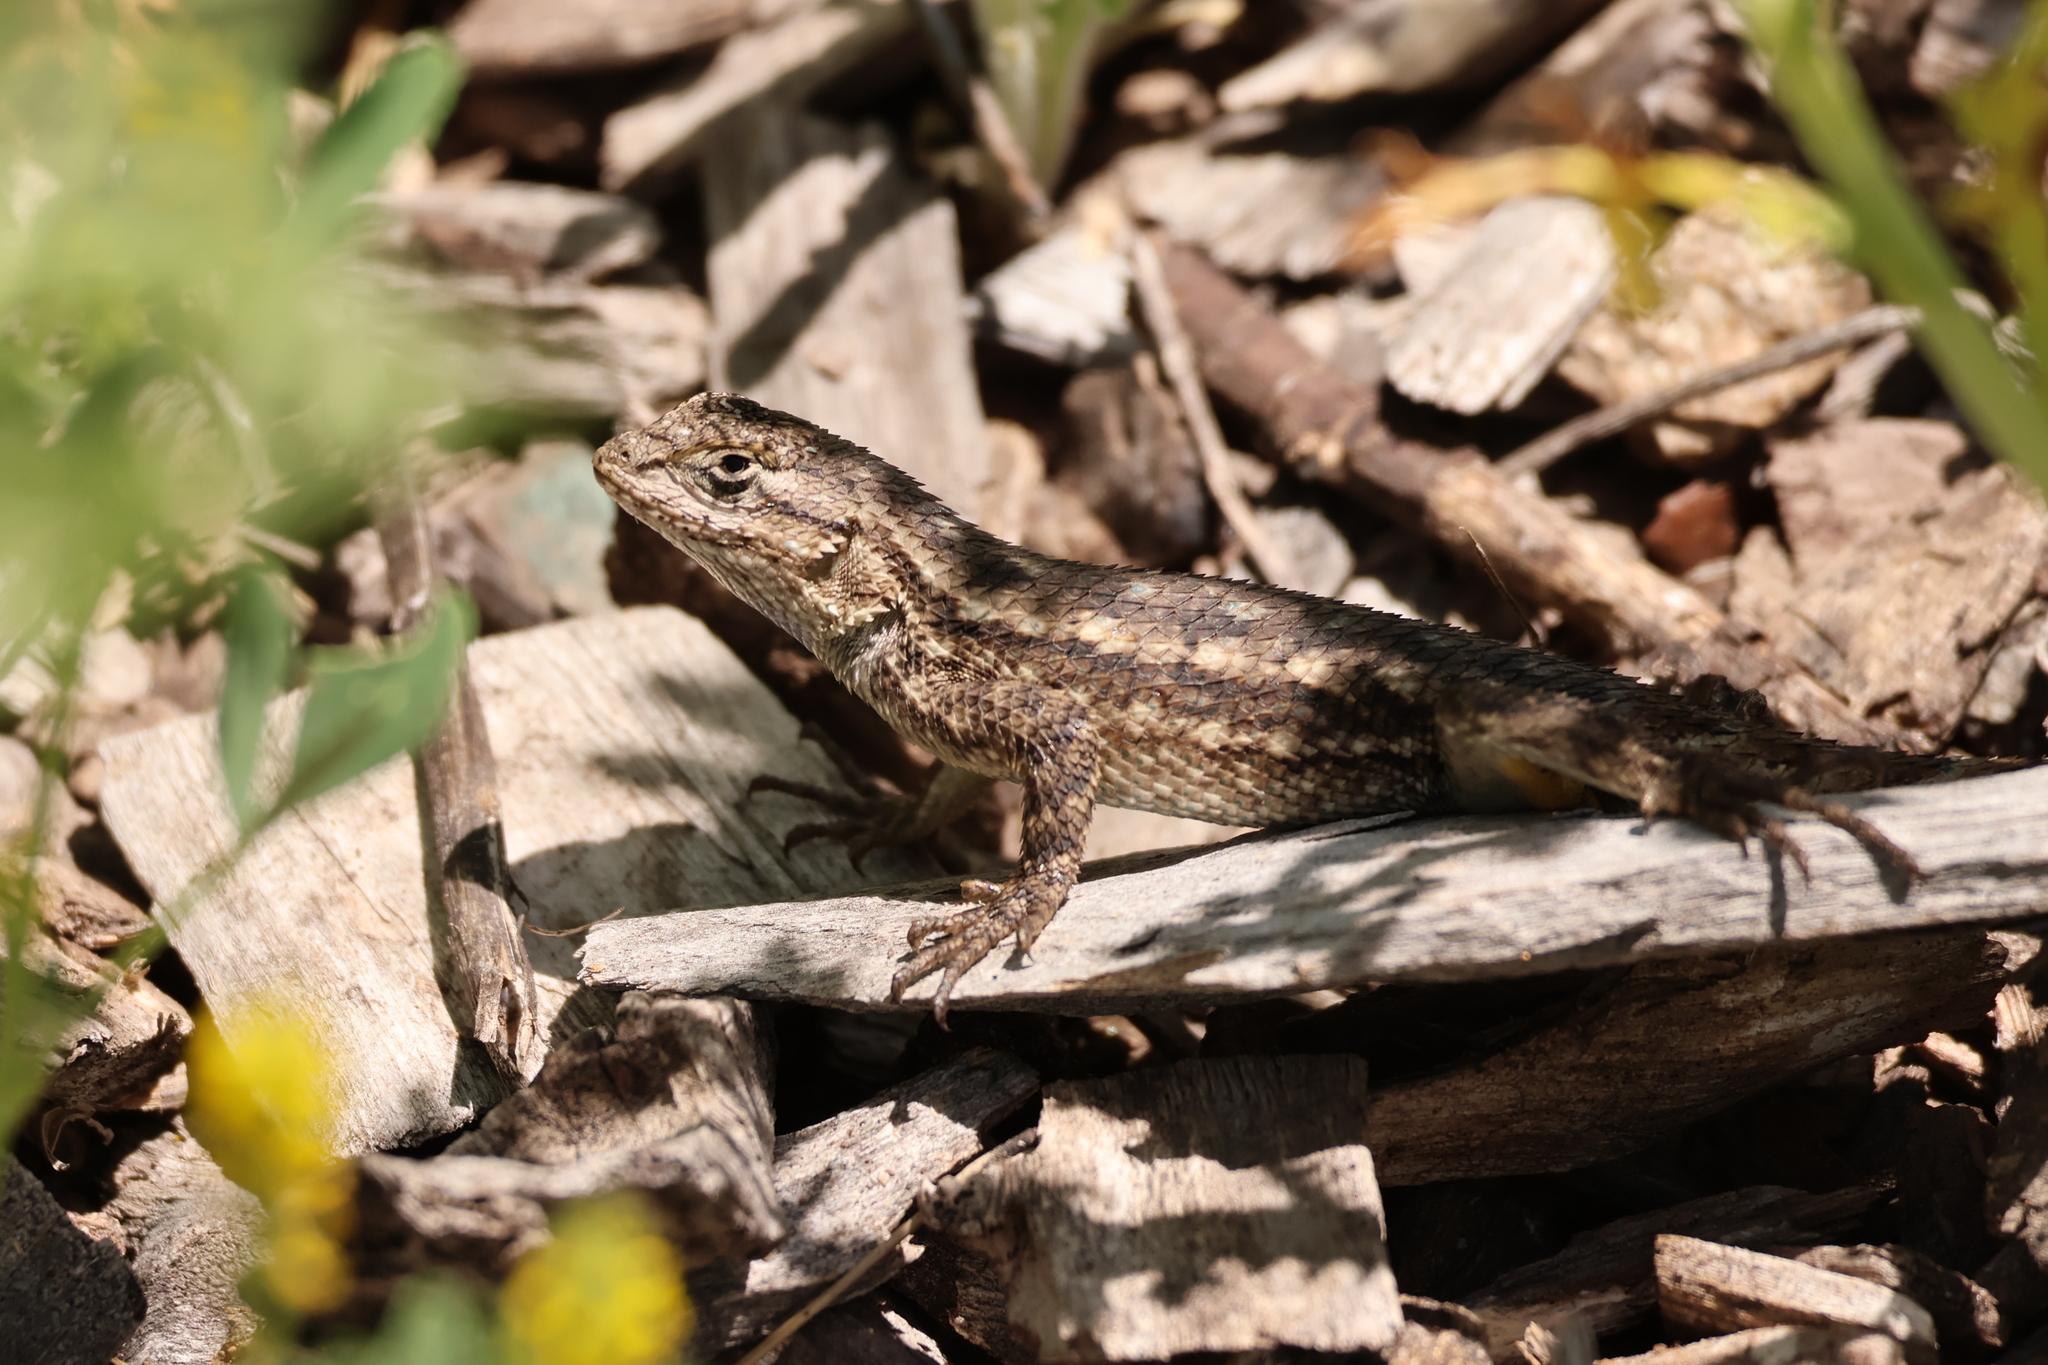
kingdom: Animalia
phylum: Chordata
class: Squamata
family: Phrynosomatidae
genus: Sceloporus
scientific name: Sceloporus occidentalis
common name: Western fence lizard
